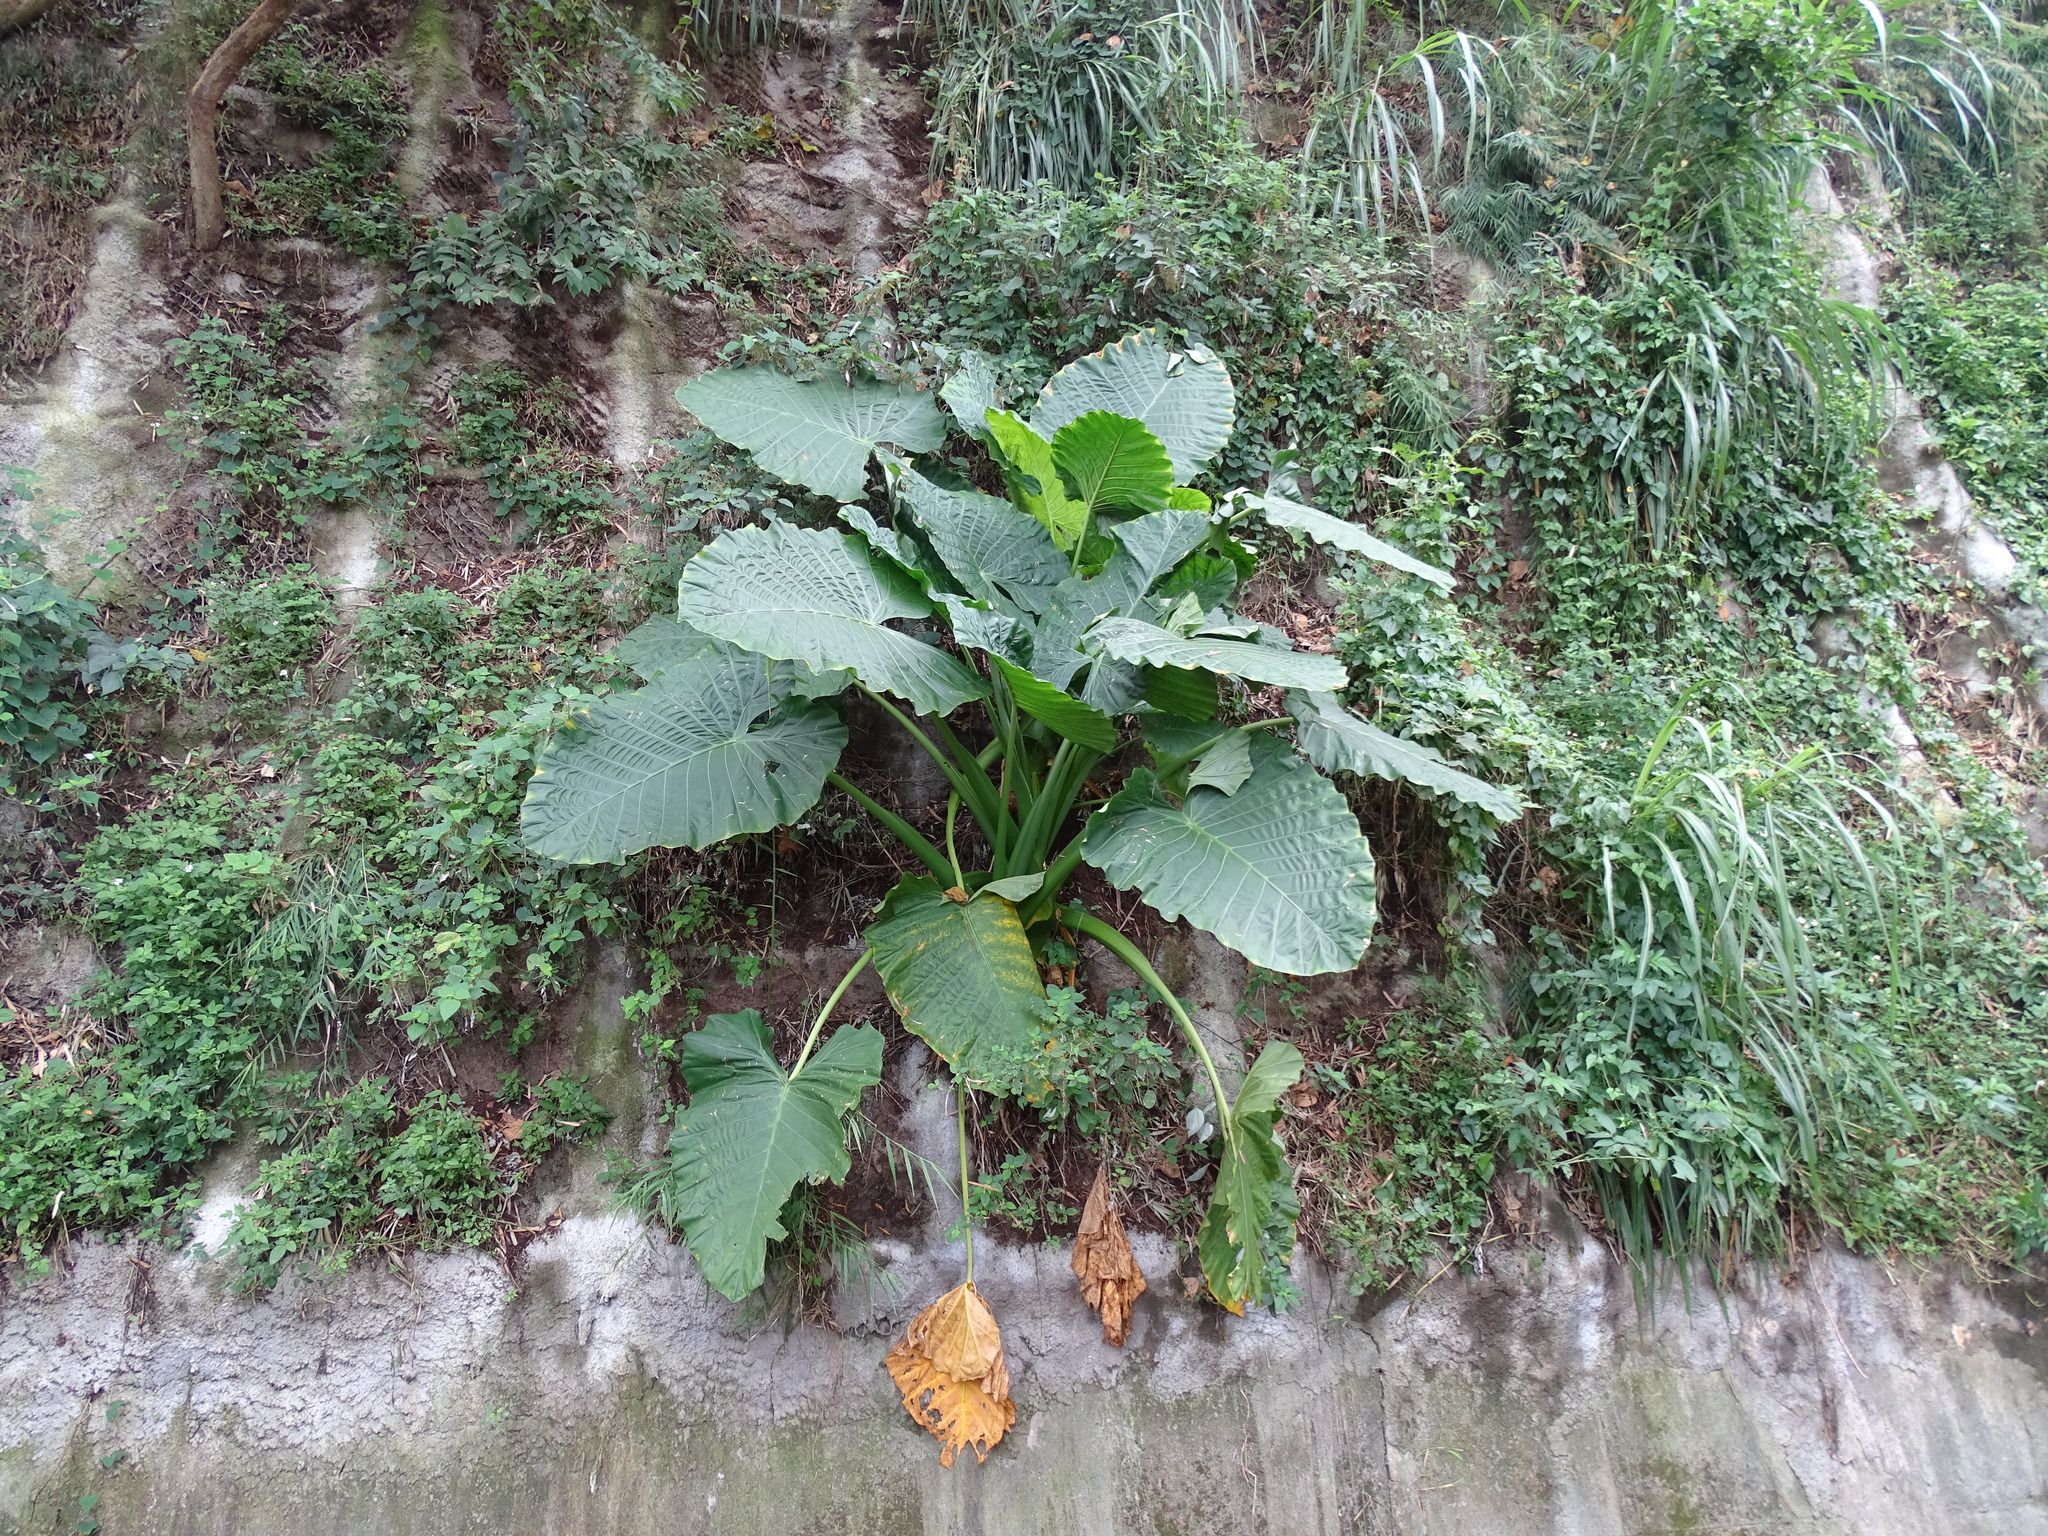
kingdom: Plantae
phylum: Tracheophyta
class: Liliopsida
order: Alismatales
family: Araceae
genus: Alocasia
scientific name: Alocasia odora
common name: Asian taro
